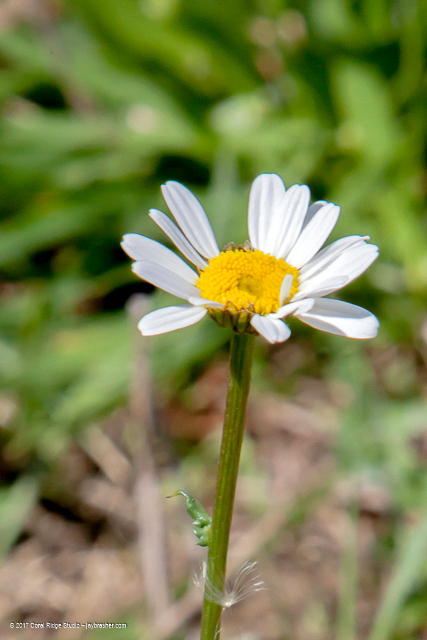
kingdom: Plantae
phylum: Tracheophyta
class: Magnoliopsida
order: Asterales
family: Asteraceae
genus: Leucanthemum
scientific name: Leucanthemum vulgare
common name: Oxeye daisy
